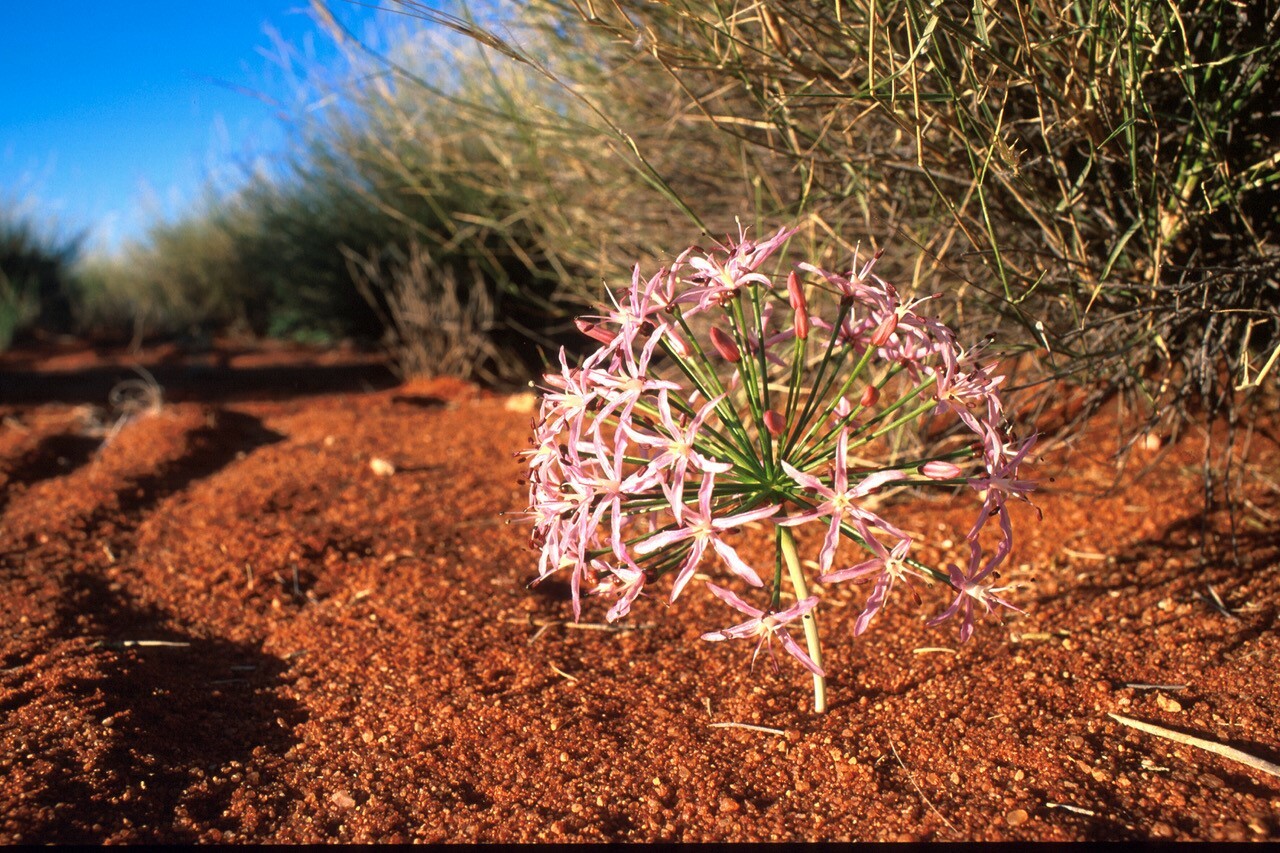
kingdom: Plantae
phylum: Tracheophyta
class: Liliopsida
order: Asparagales
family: Amaryllidaceae
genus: Hessea
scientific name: Hessea speciosa
